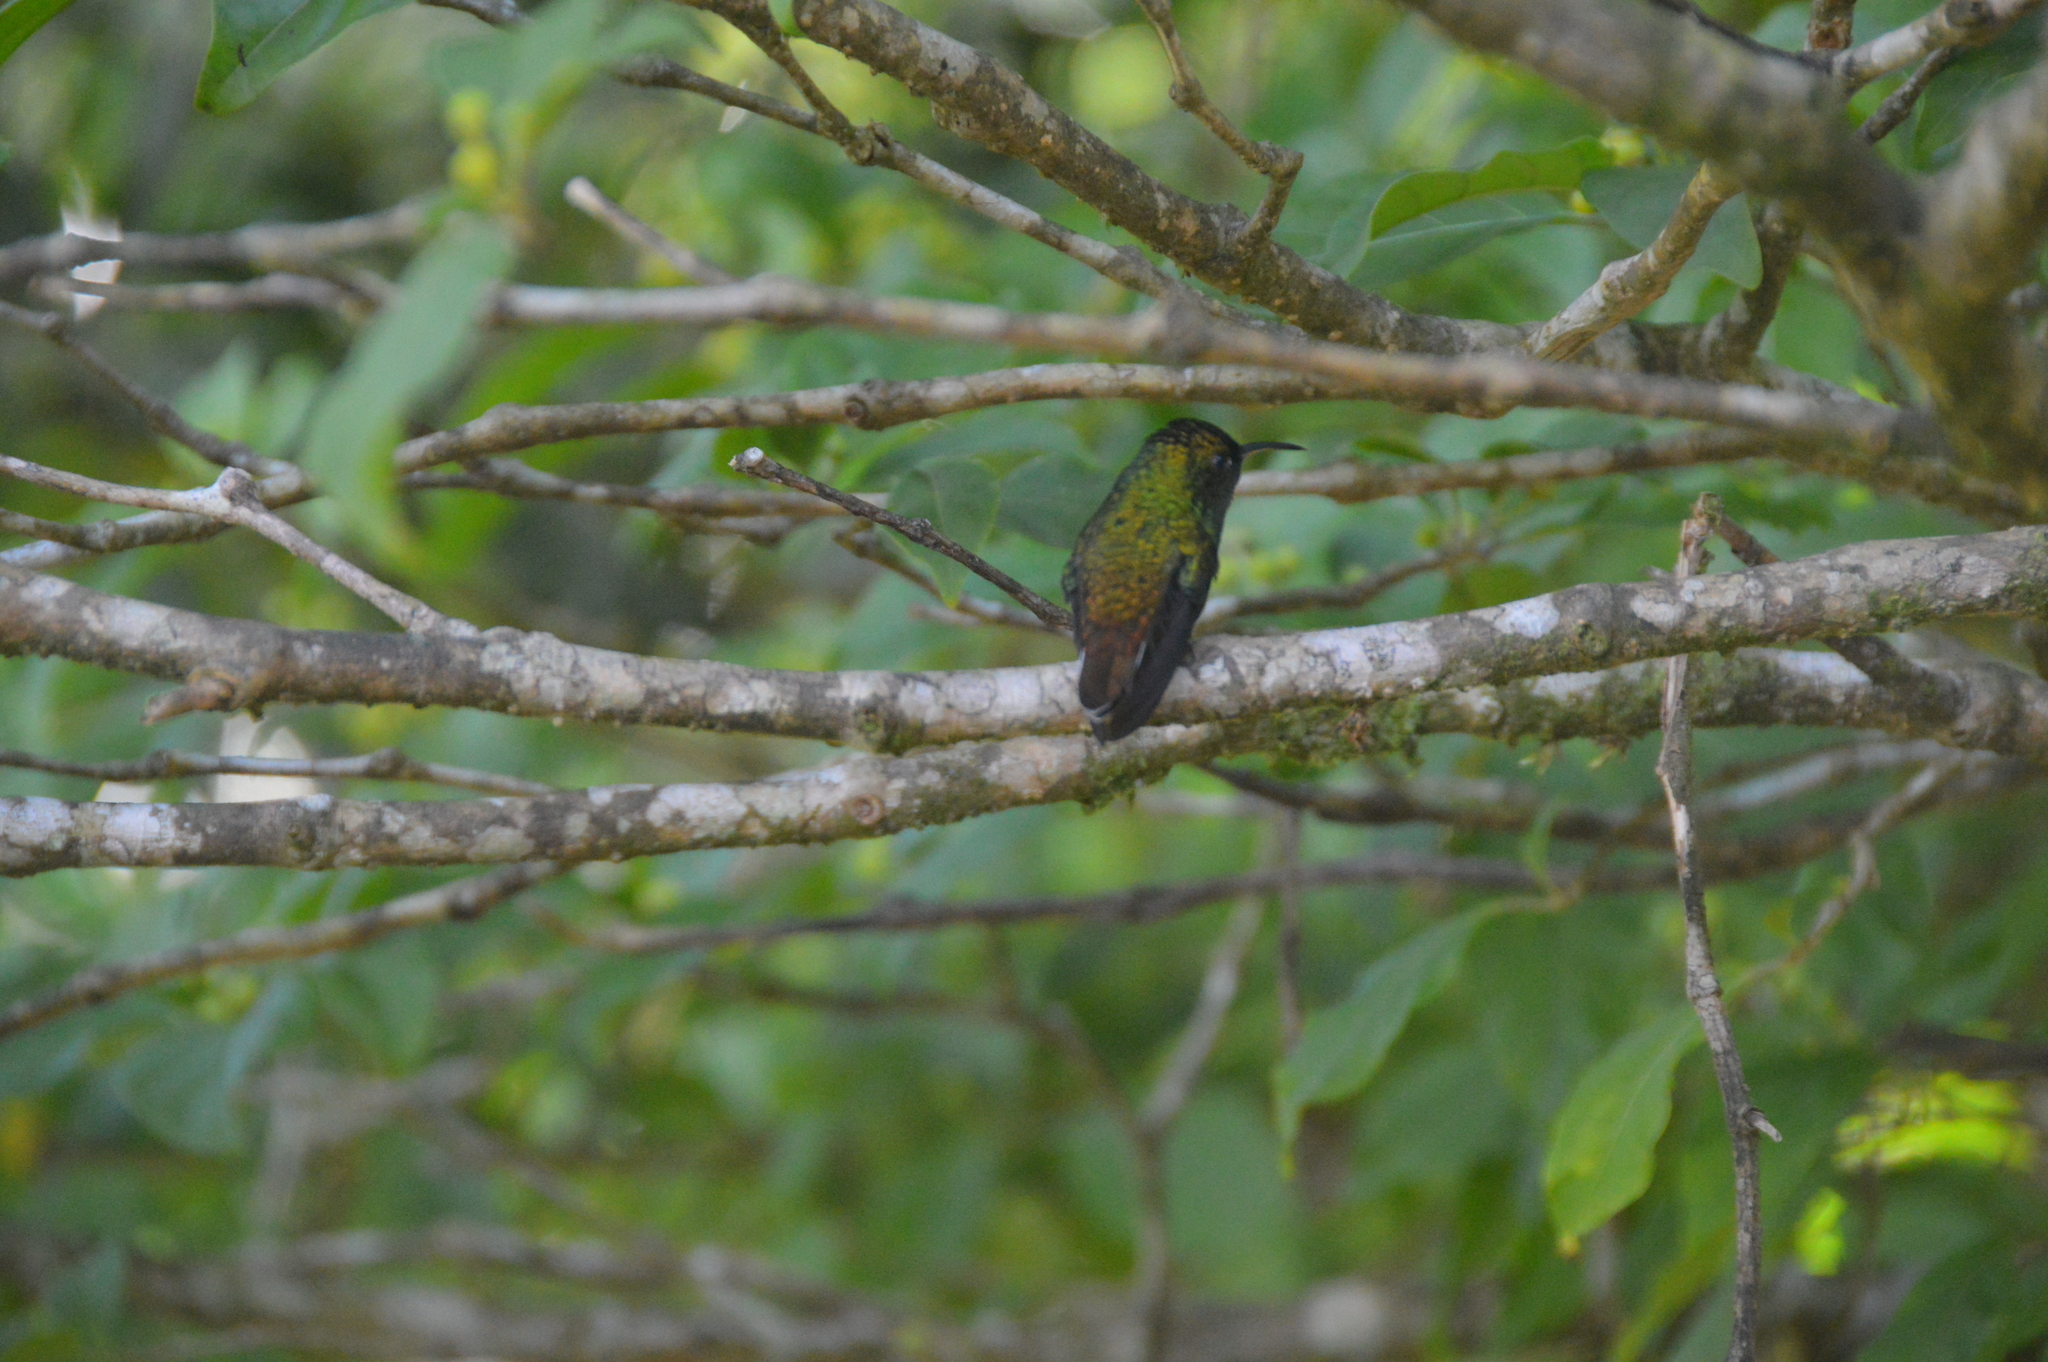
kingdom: Animalia
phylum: Chordata
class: Aves
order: Apodiformes
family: Trochilidae
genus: Microchera
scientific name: Microchera cupreiceps
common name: Coppery-headed emerald
